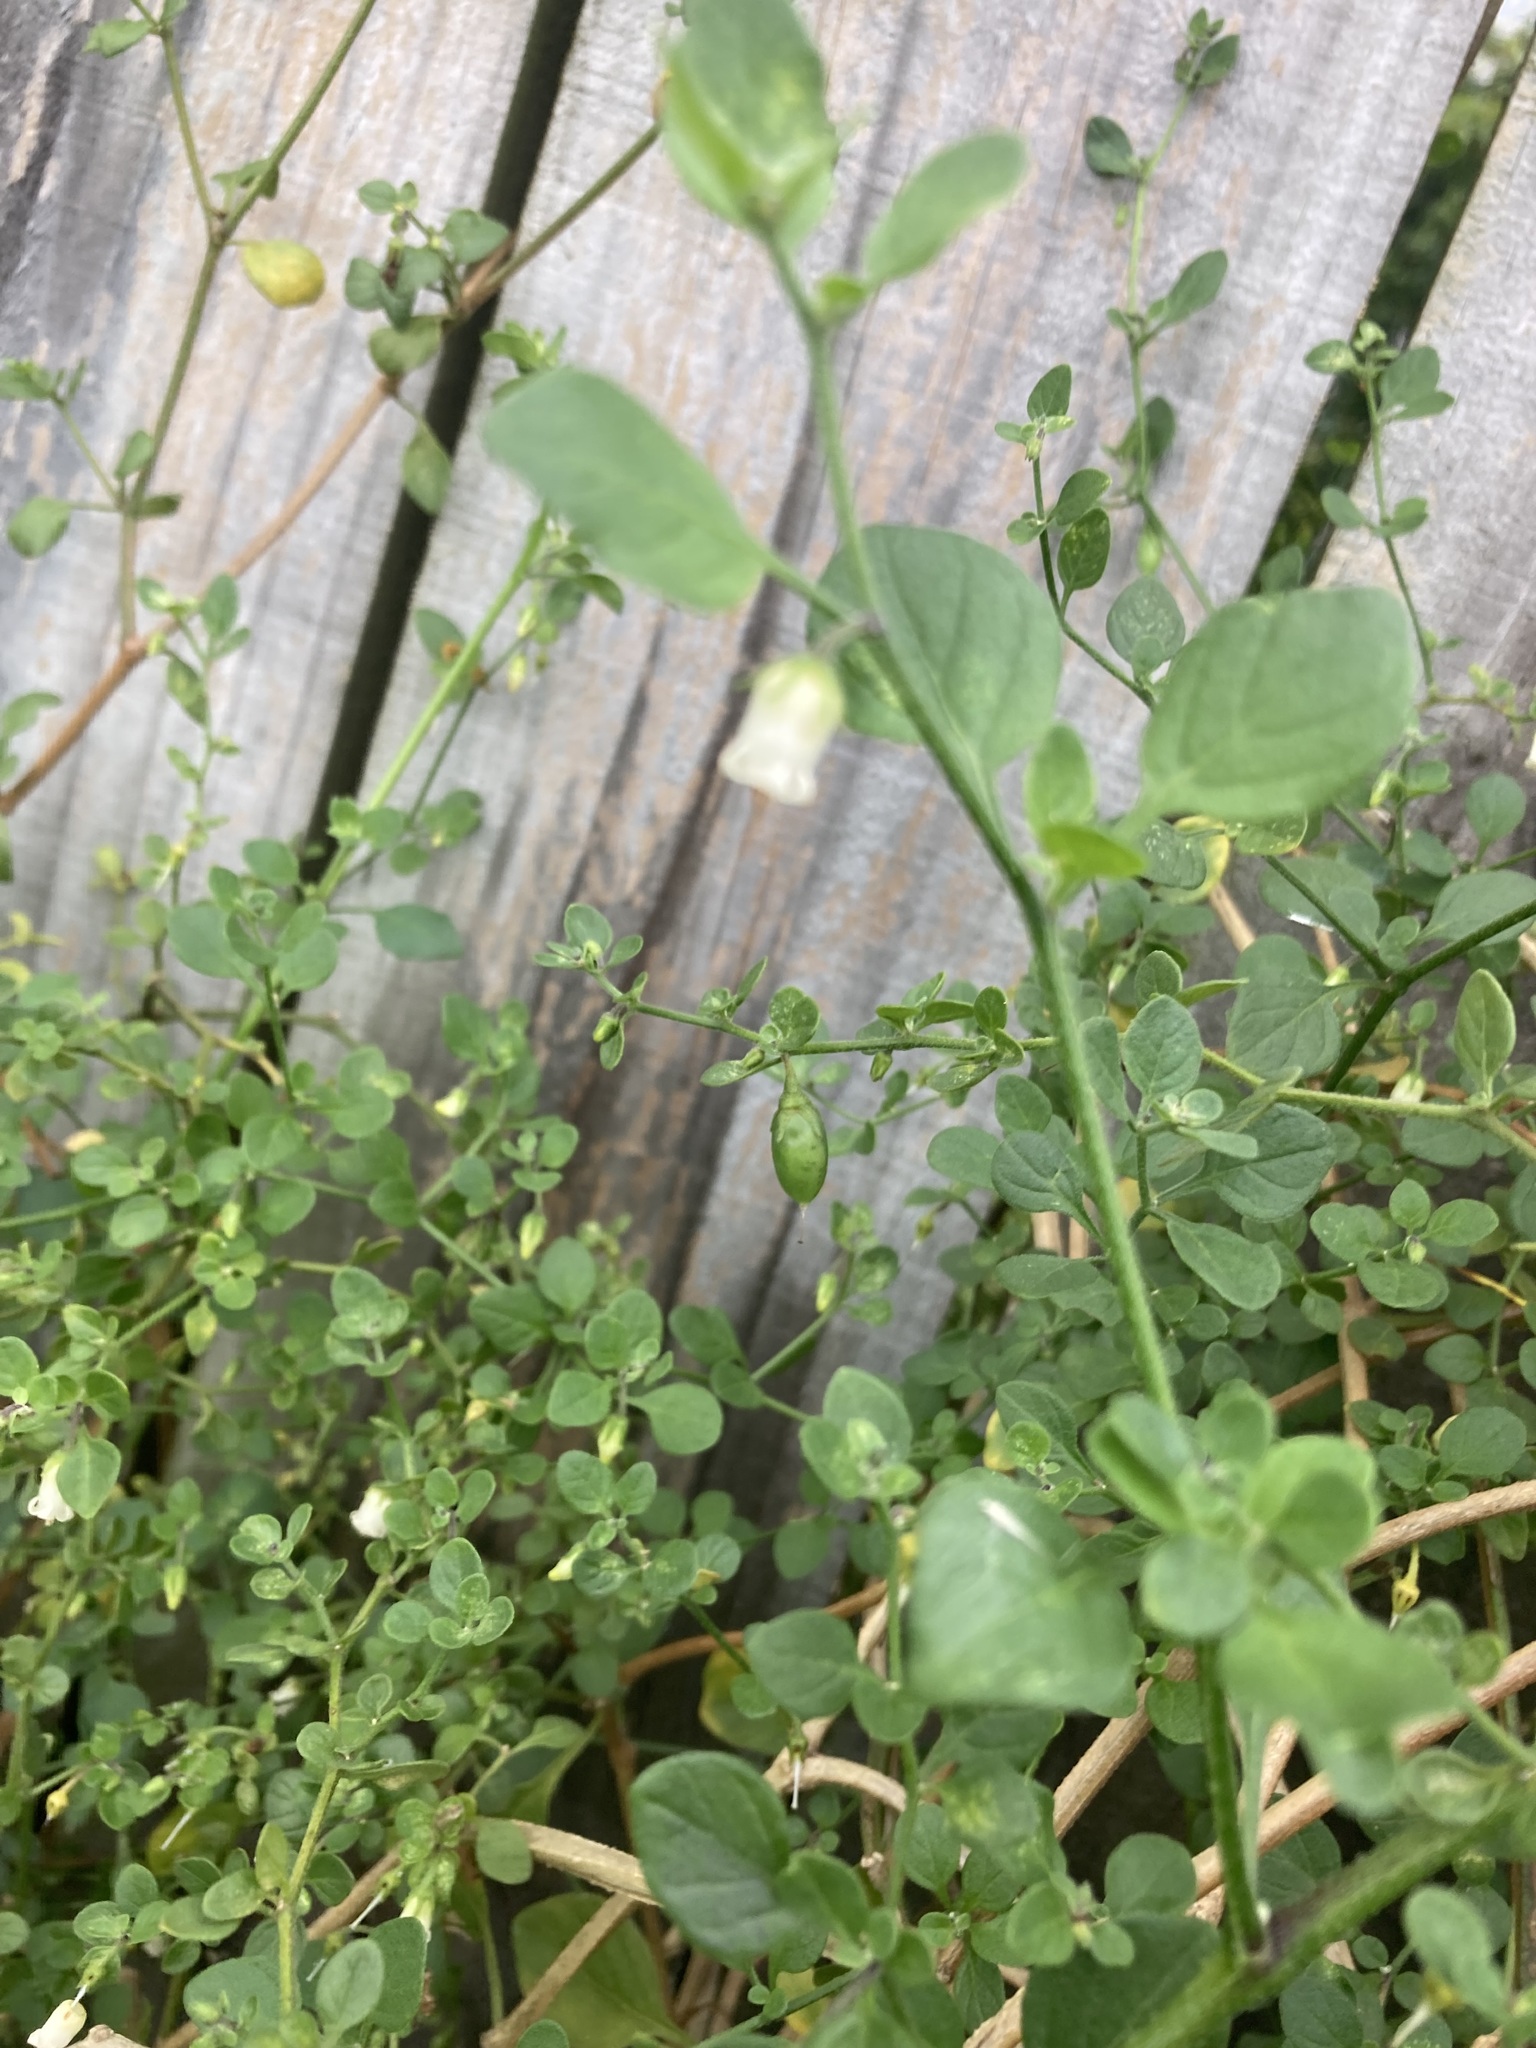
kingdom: Plantae
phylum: Tracheophyta
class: Magnoliopsida
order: Solanales
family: Solanaceae
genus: Salpichroa
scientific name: Salpichroa origanifolia
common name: Lily-of-the-valley-vine
